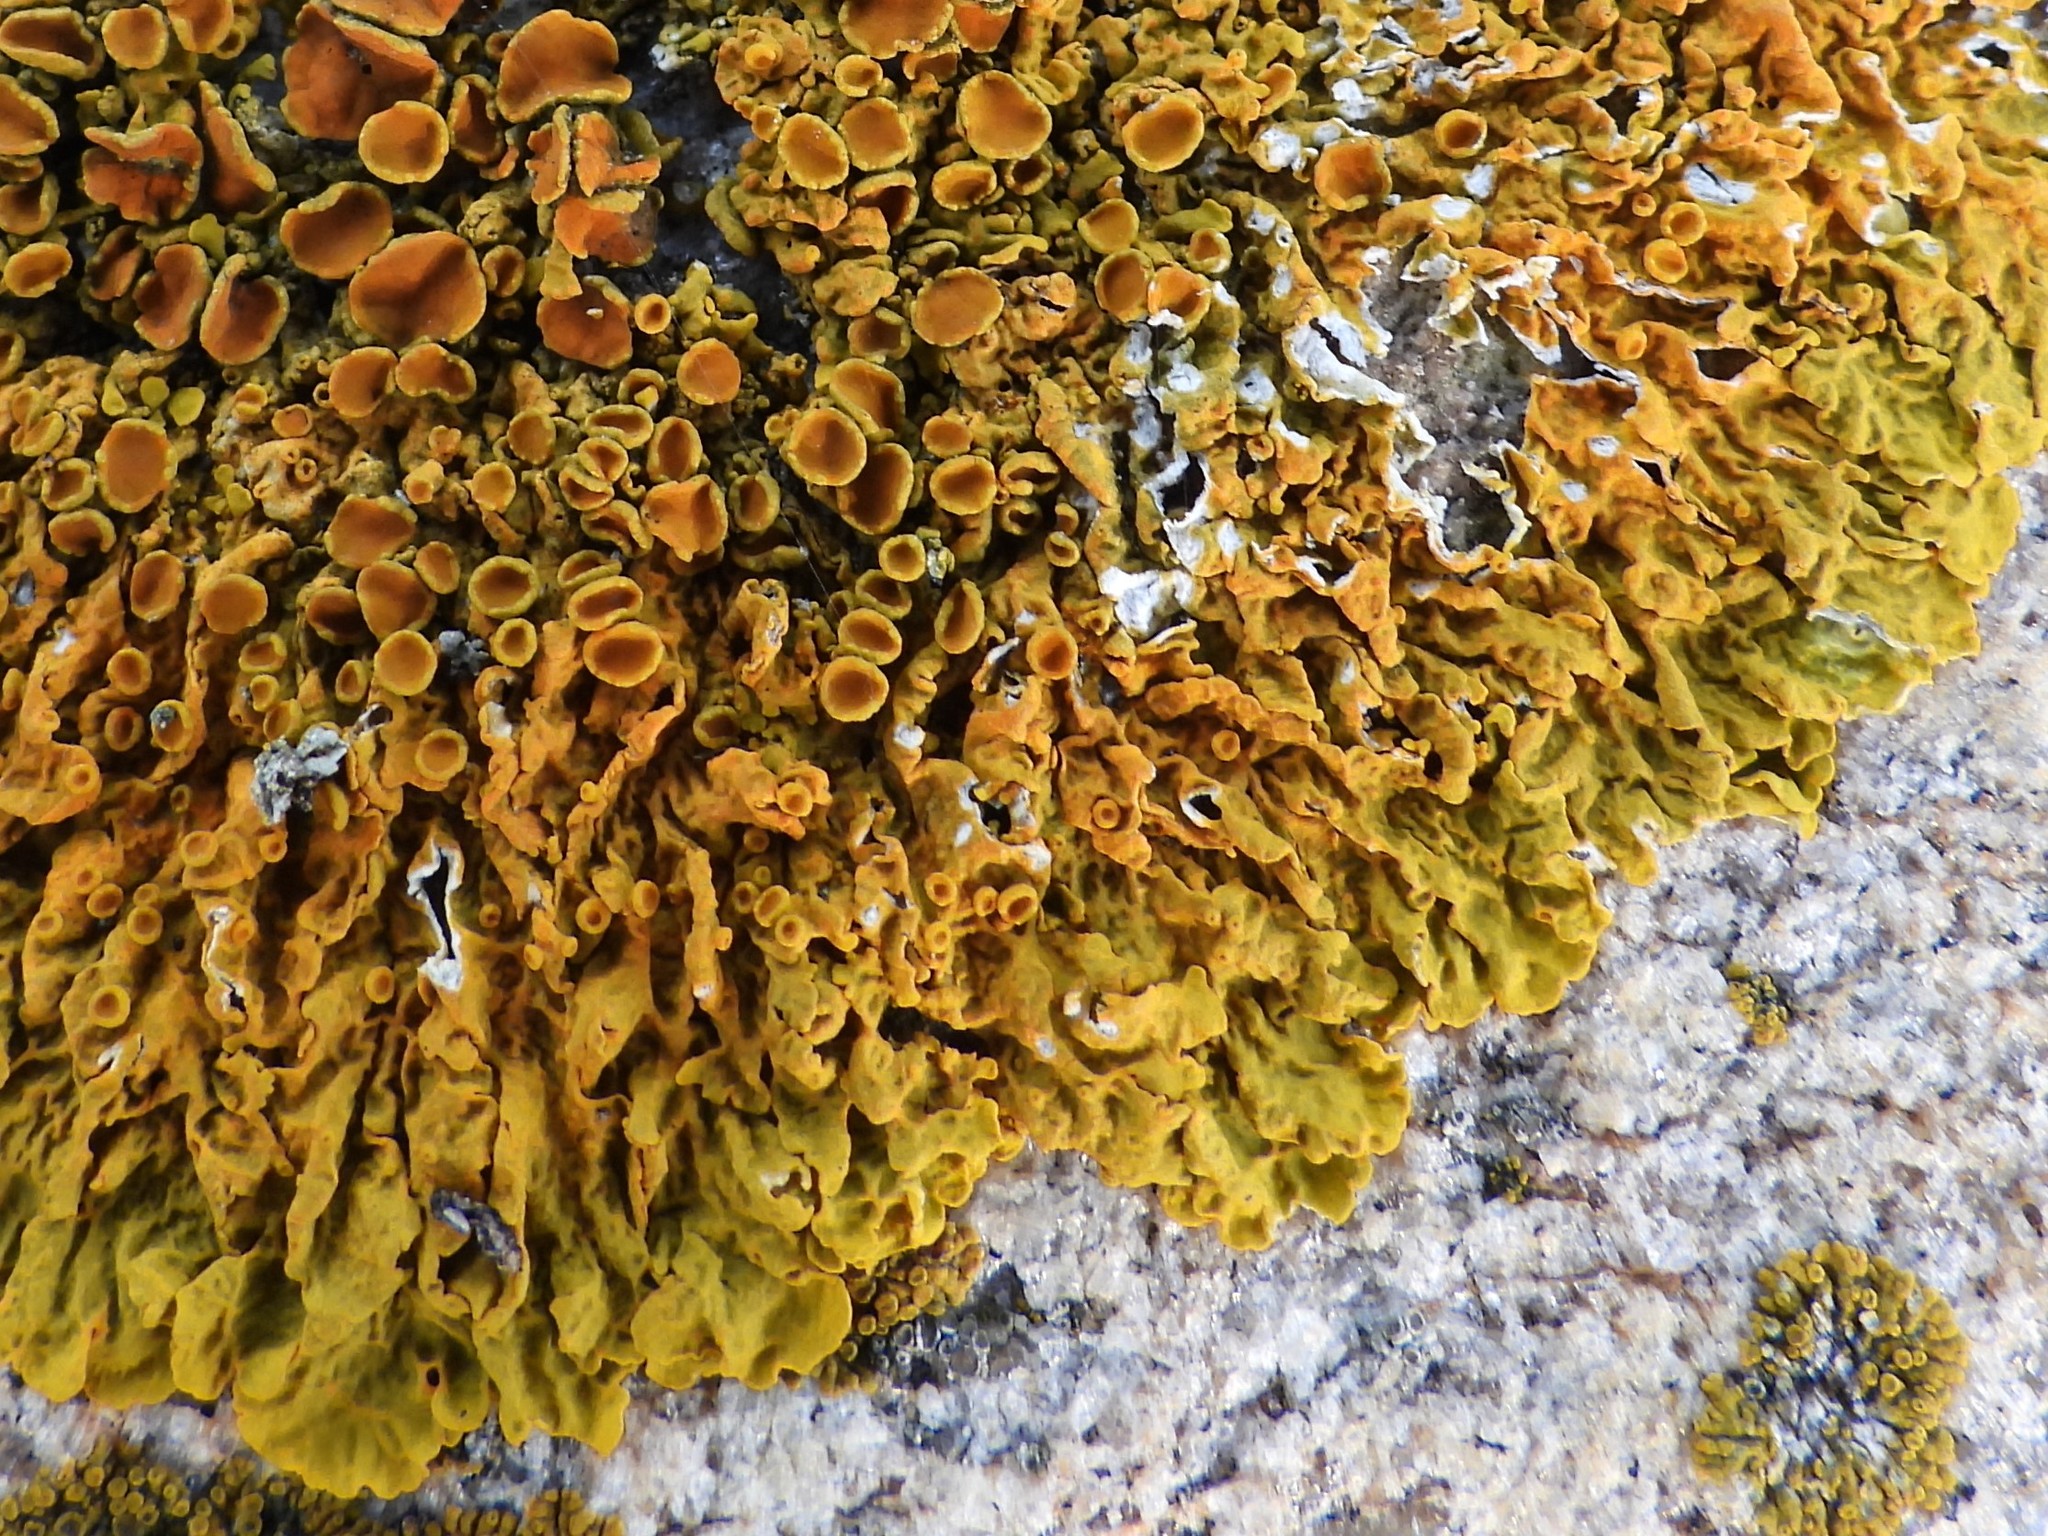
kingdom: Fungi
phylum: Ascomycota
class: Lecanoromycetes
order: Teloschistales
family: Teloschistaceae
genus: Xanthoria
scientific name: Xanthoria parietina
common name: Common orange lichen
